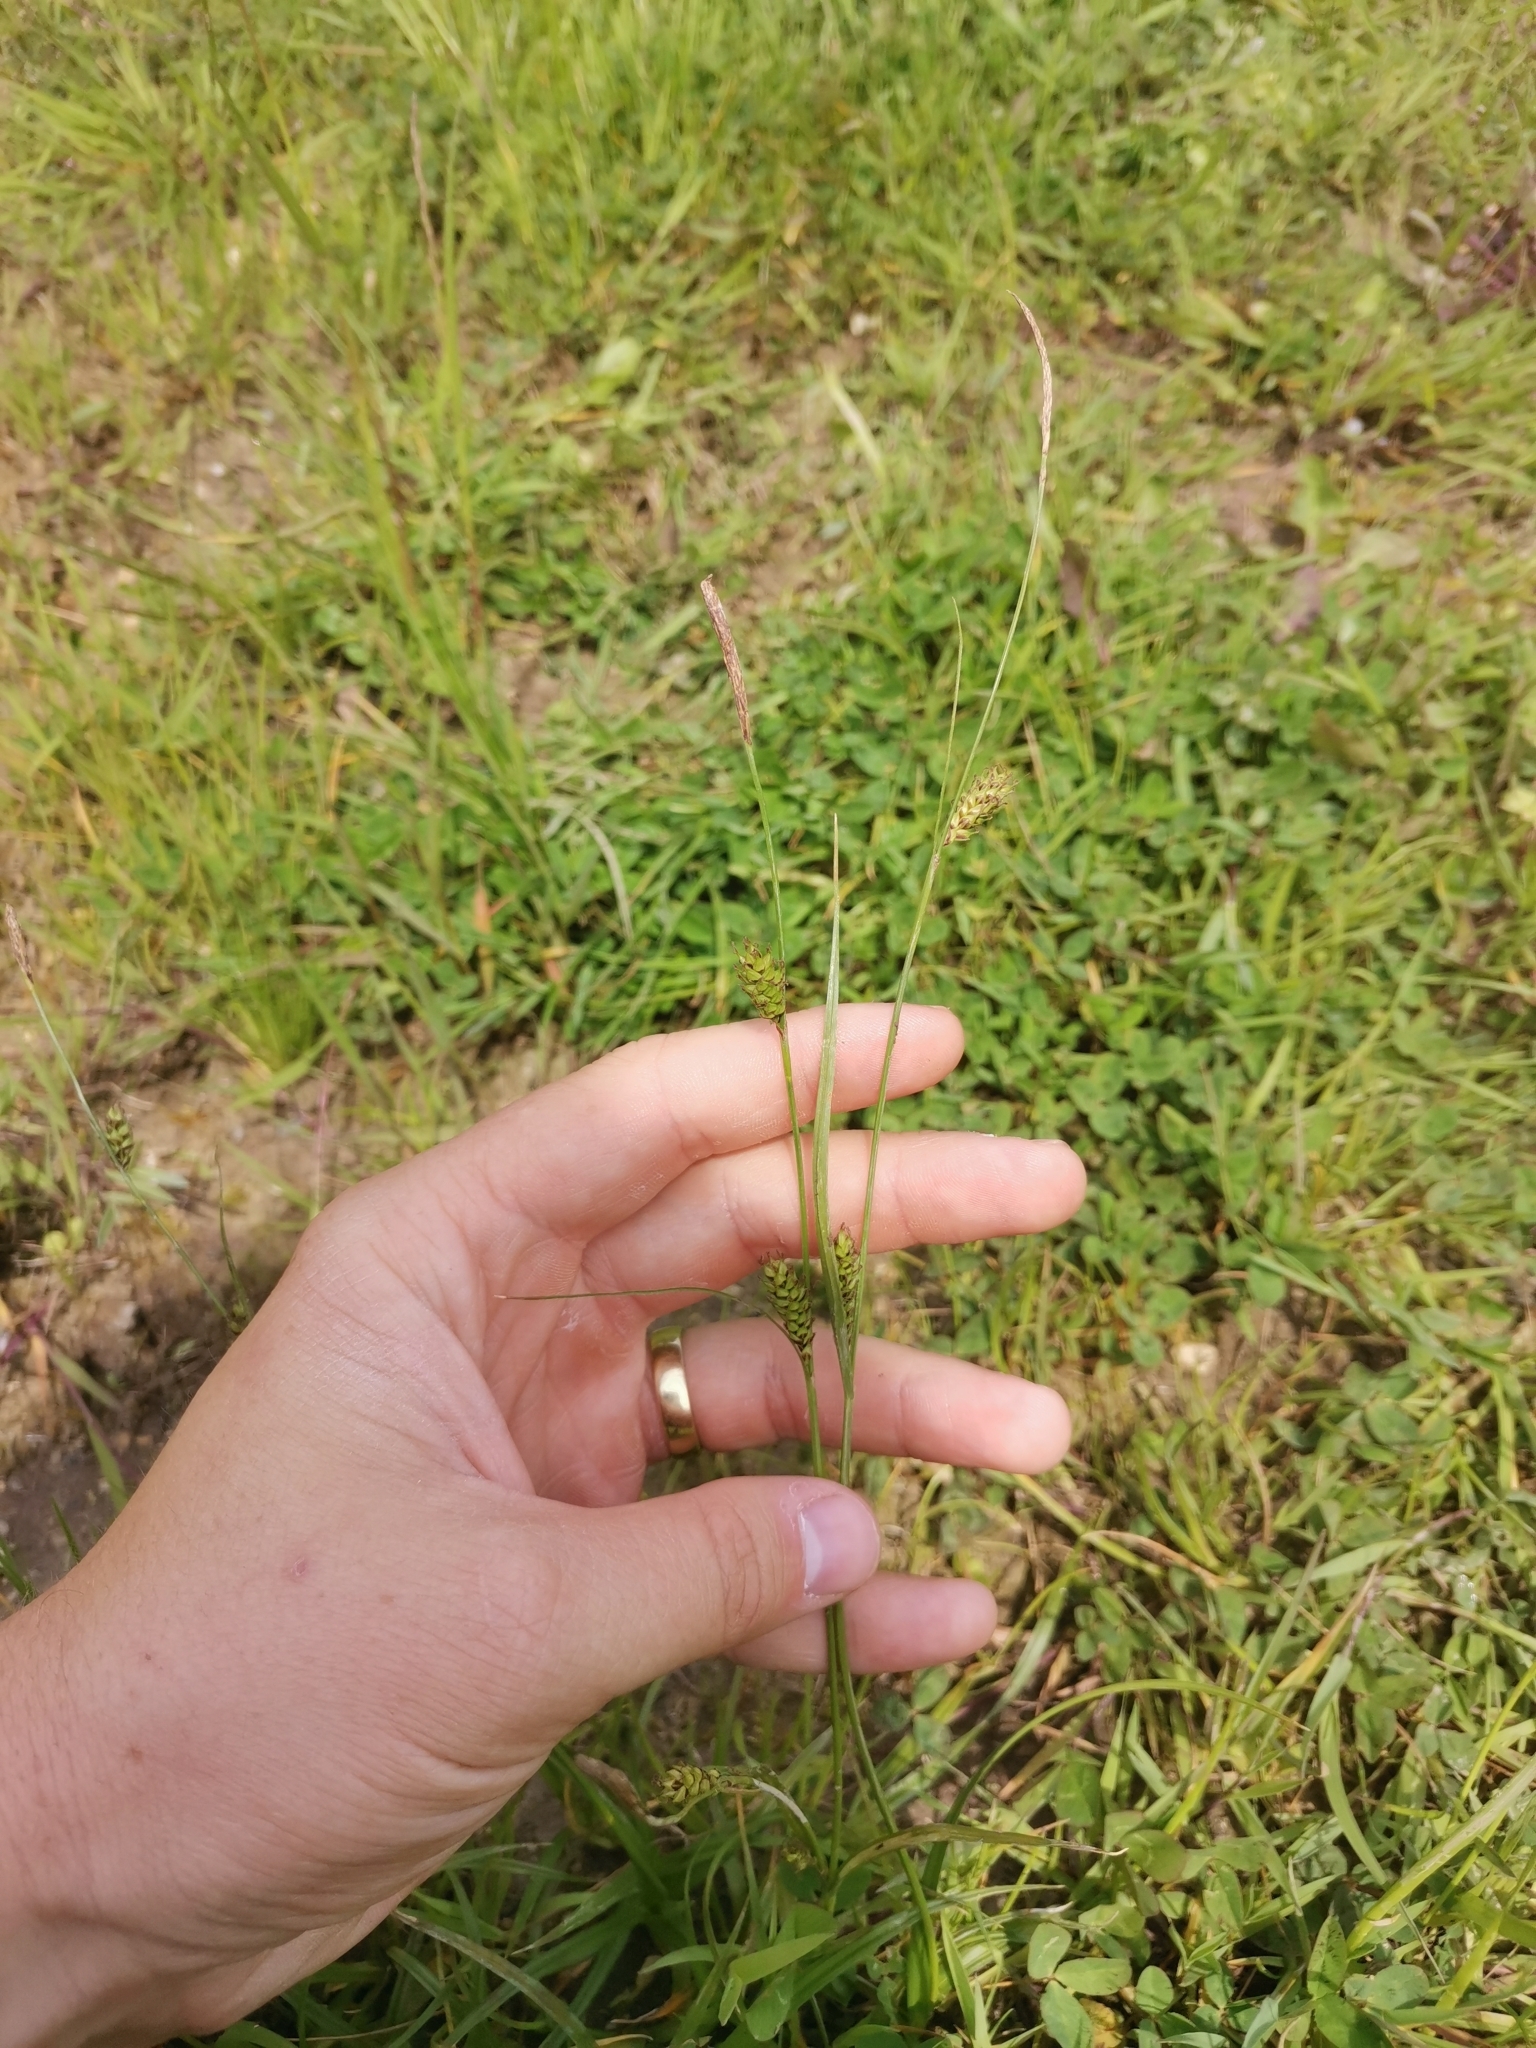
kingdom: Plantae
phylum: Tracheophyta
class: Liliopsida
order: Poales
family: Cyperaceae
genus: Carex
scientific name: Carex distans
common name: Distant sedge
